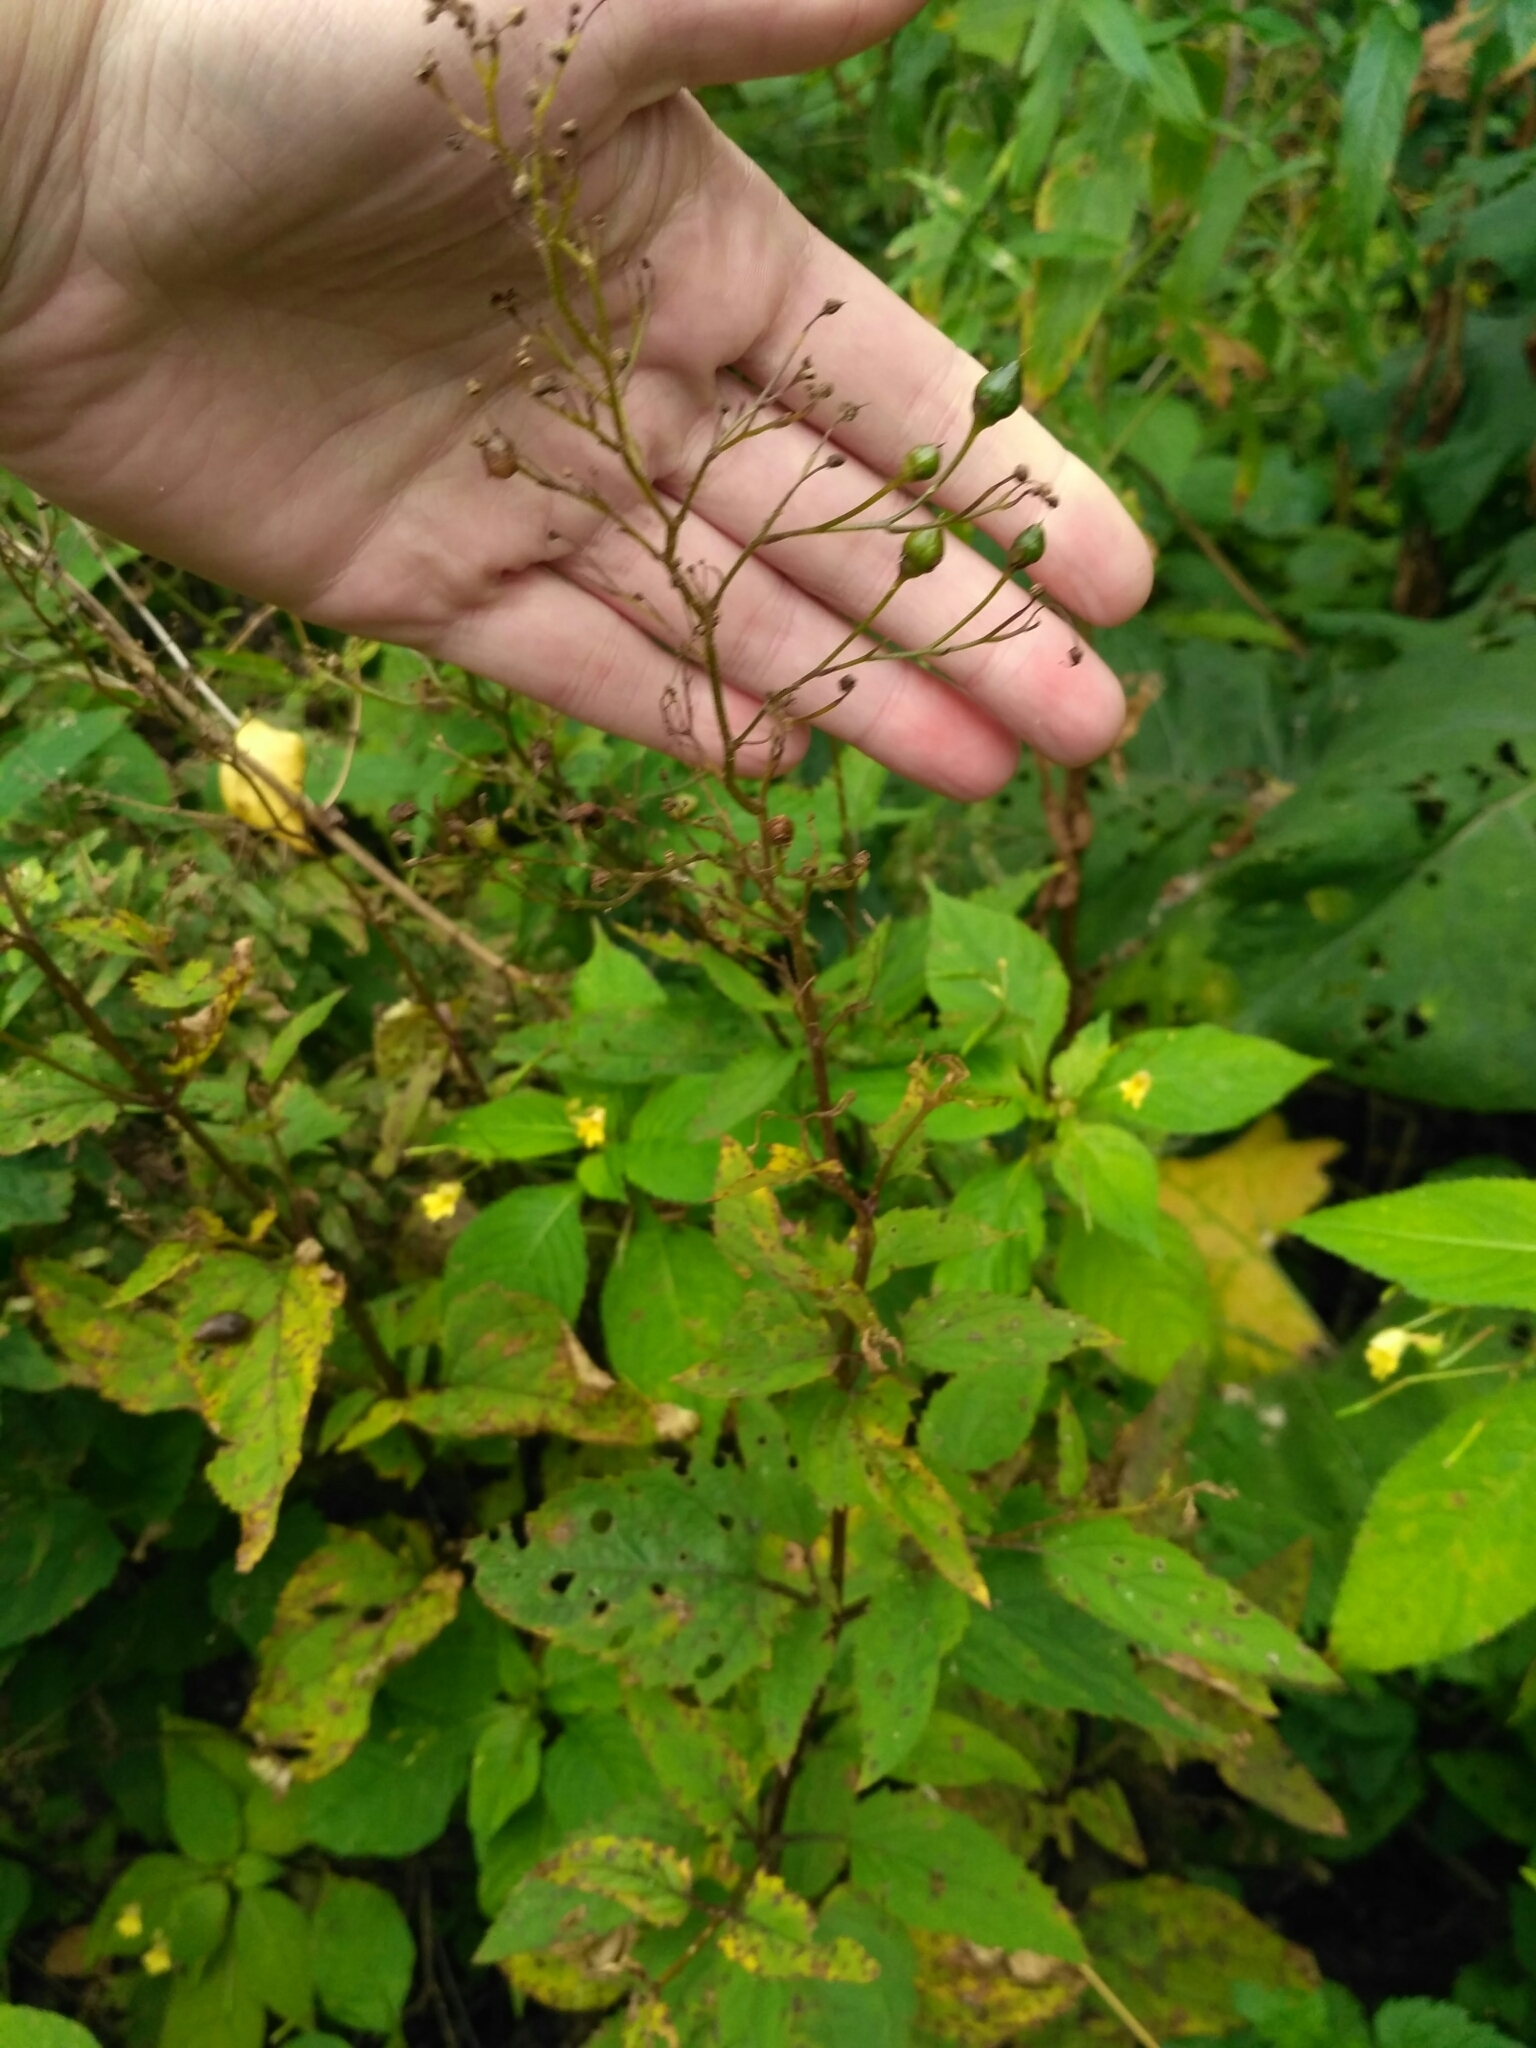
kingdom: Plantae
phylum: Tracheophyta
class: Magnoliopsida
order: Lamiales
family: Scrophulariaceae
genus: Scrophularia
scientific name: Scrophularia nodosa
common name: Common figwort
